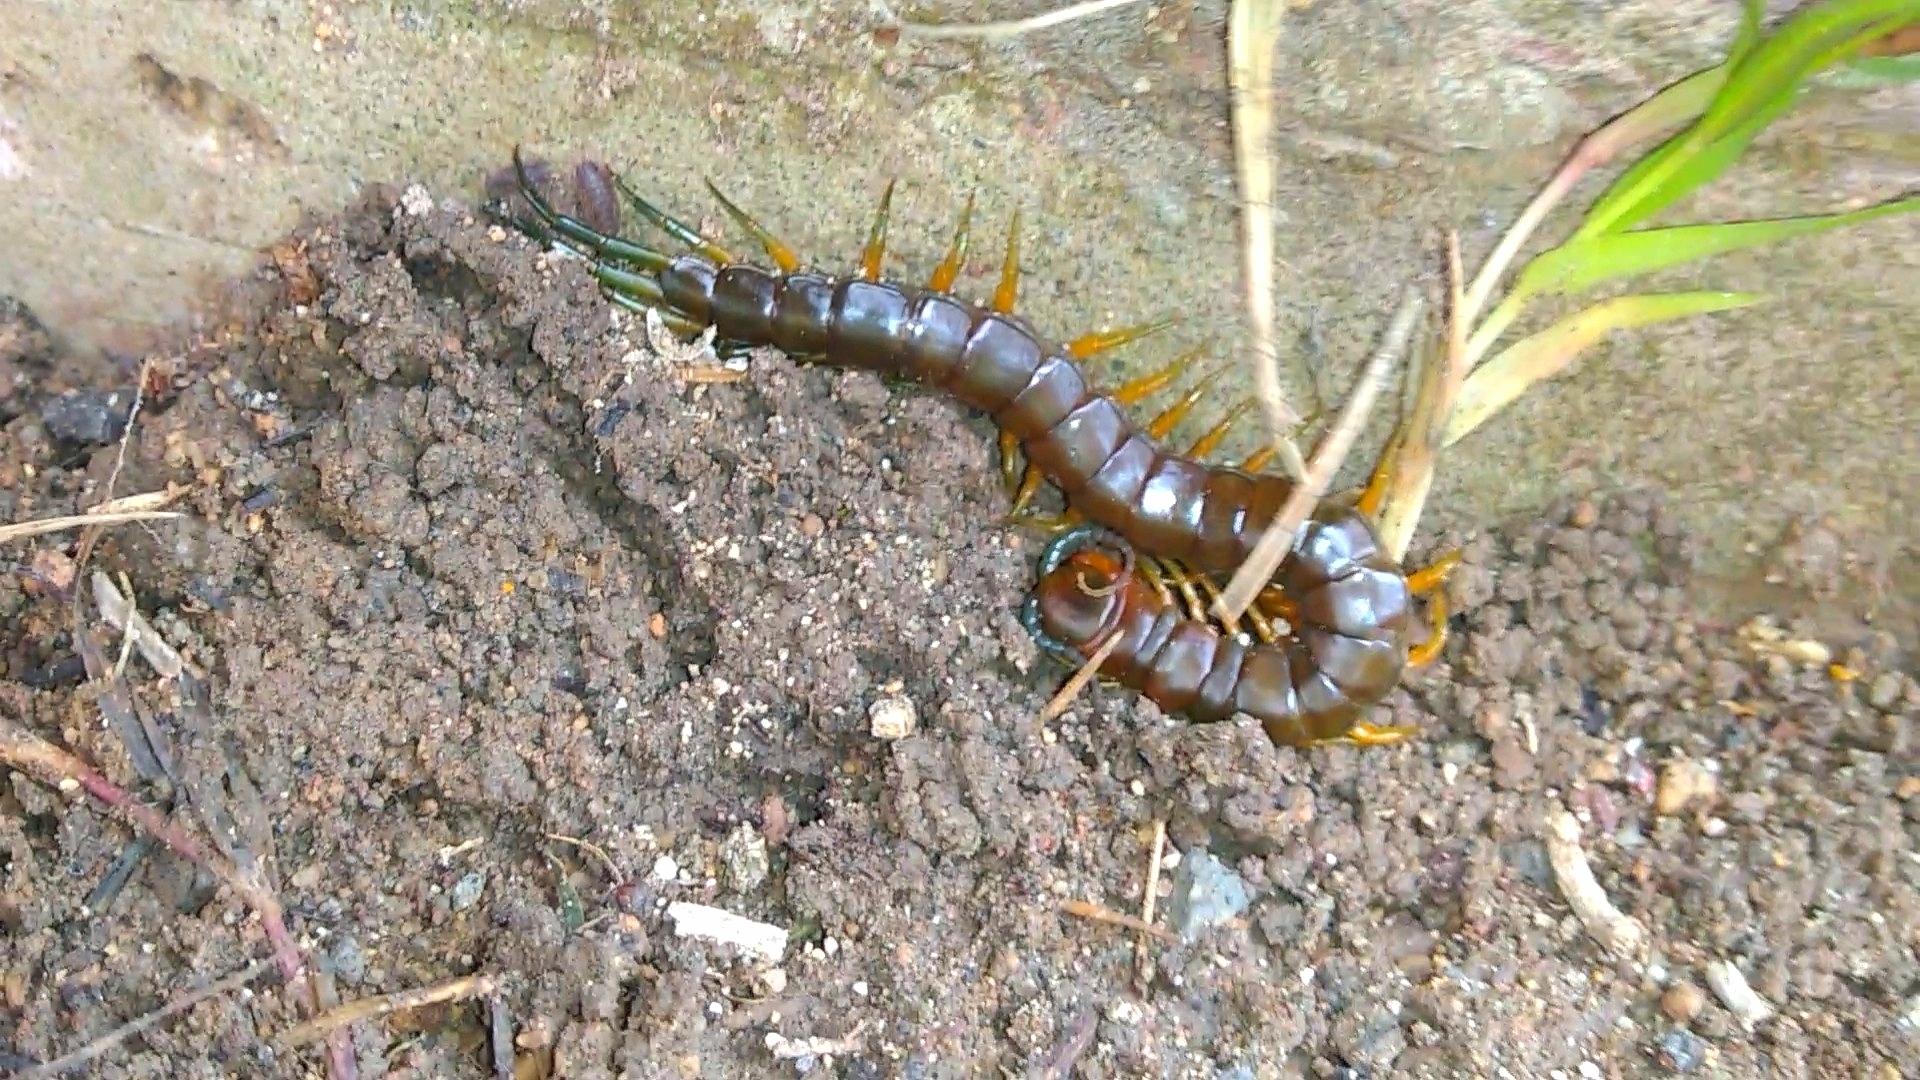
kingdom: Animalia
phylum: Arthropoda
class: Chilopoda
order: Scolopendromorpha
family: Scolopendridae
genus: Scolopendra
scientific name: Scolopendra viridis
